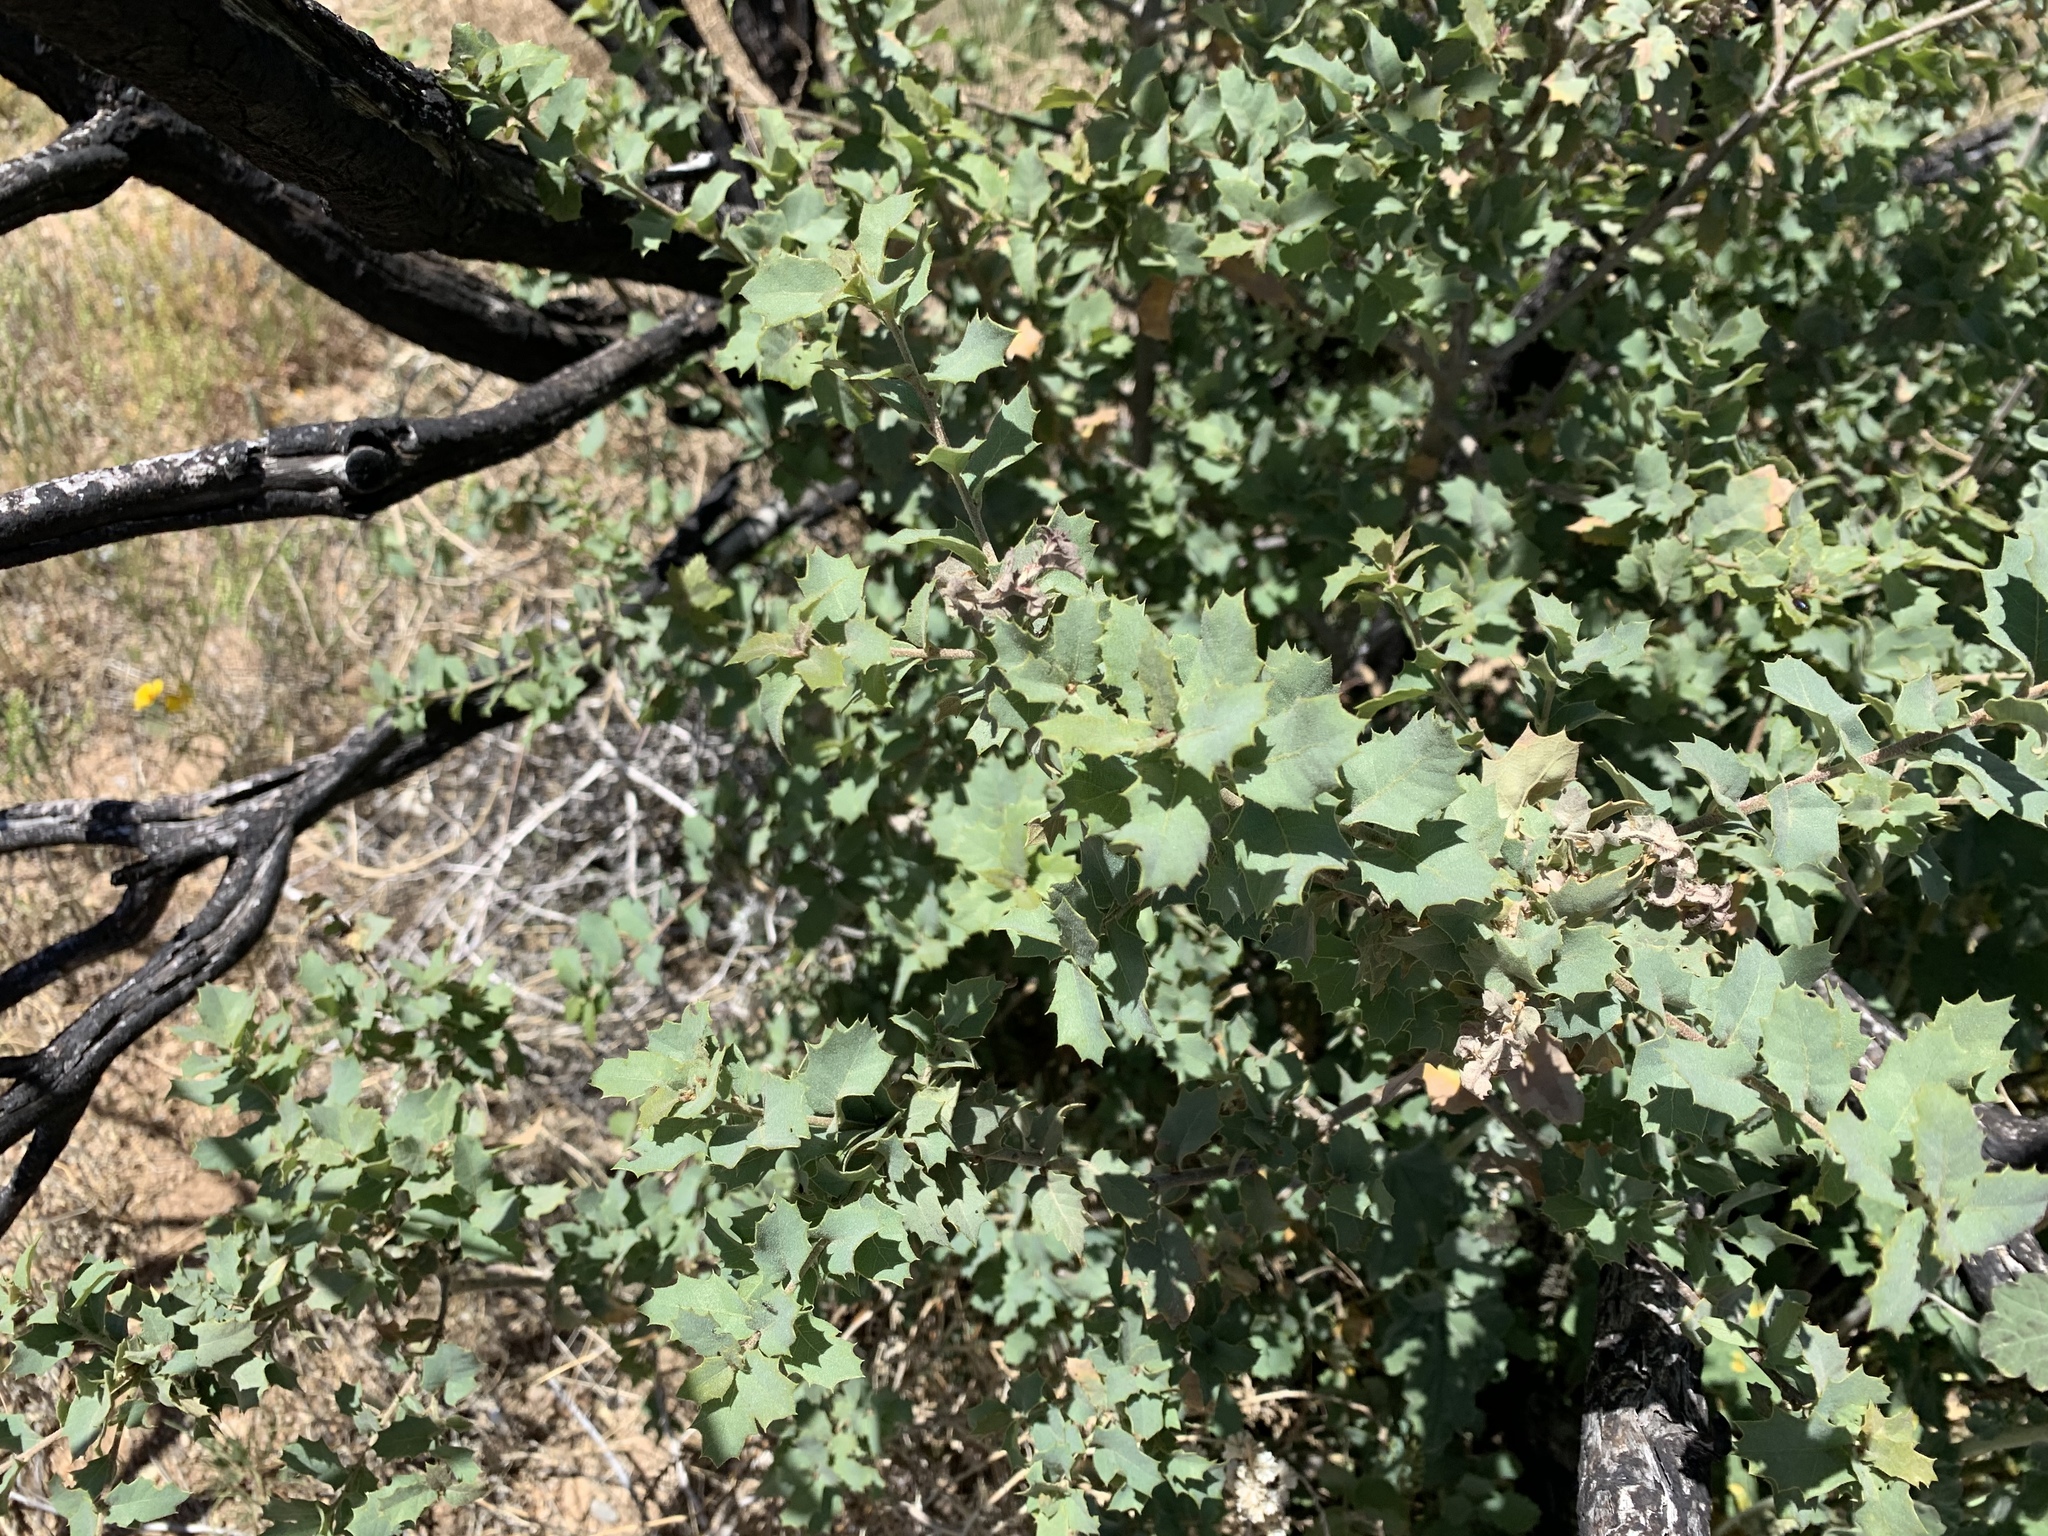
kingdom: Plantae
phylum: Tracheophyta
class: Magnoliopsida
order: Fagales
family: Fagaceae
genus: Quercus
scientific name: Quercus turbinella
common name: Sonoran scrub oak
